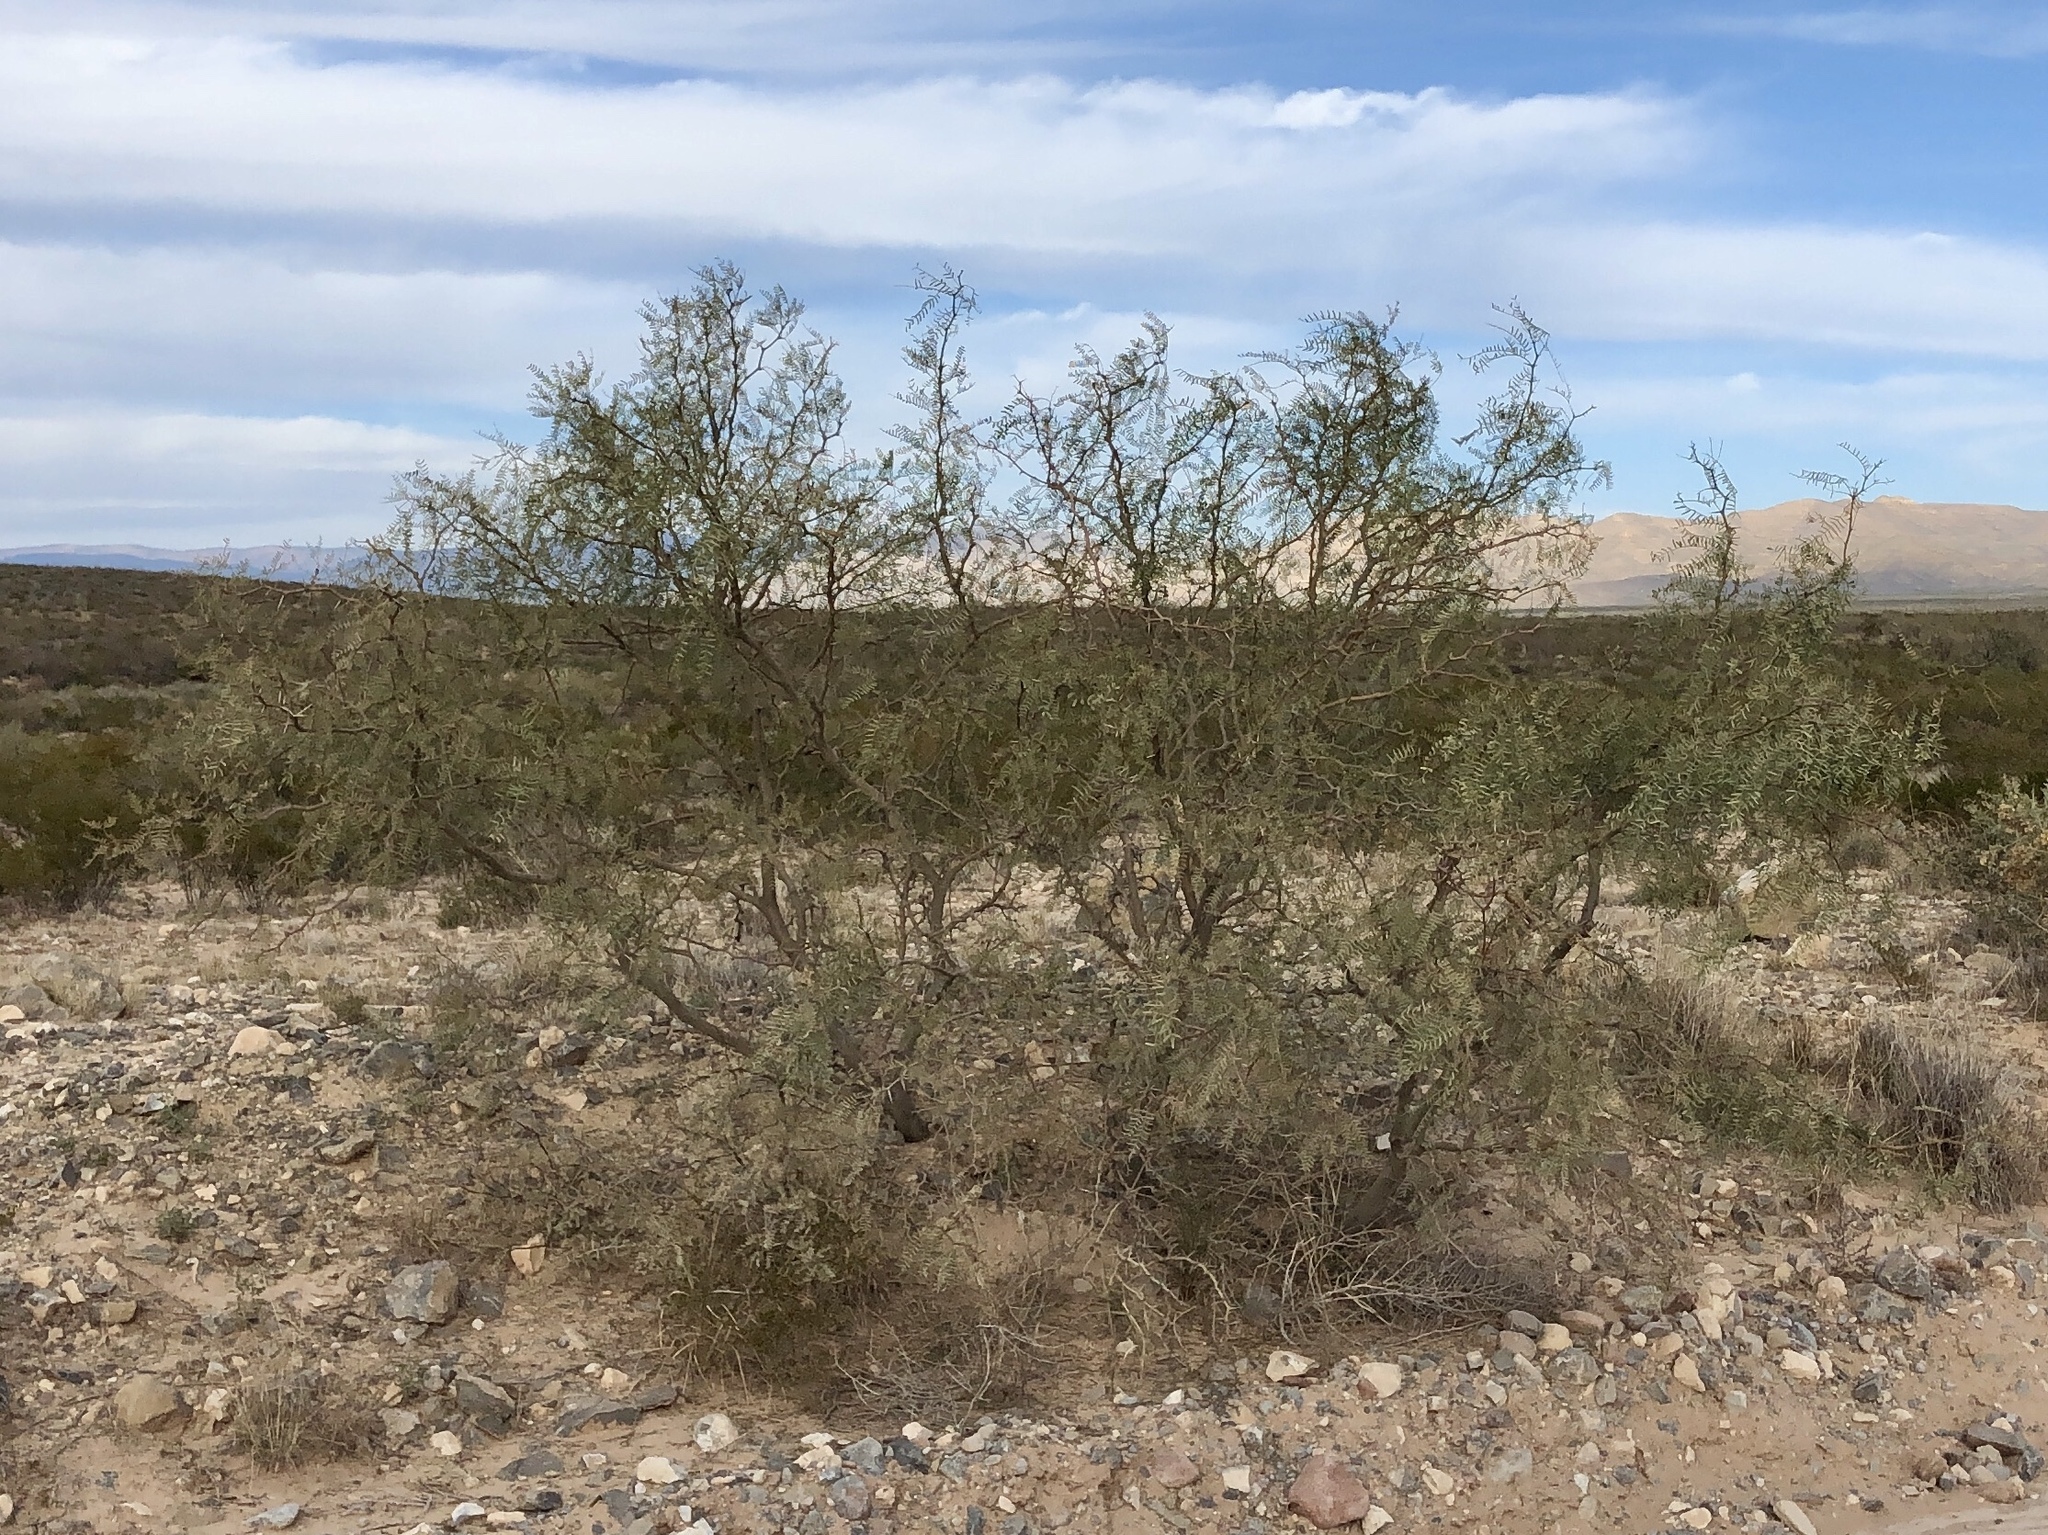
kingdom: Plantae
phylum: Tracheophyta
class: Magnoliopsida
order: Fabales
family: Fabaceae
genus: Prosopis
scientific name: Prosopis glandulosa
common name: Honey mesquite
